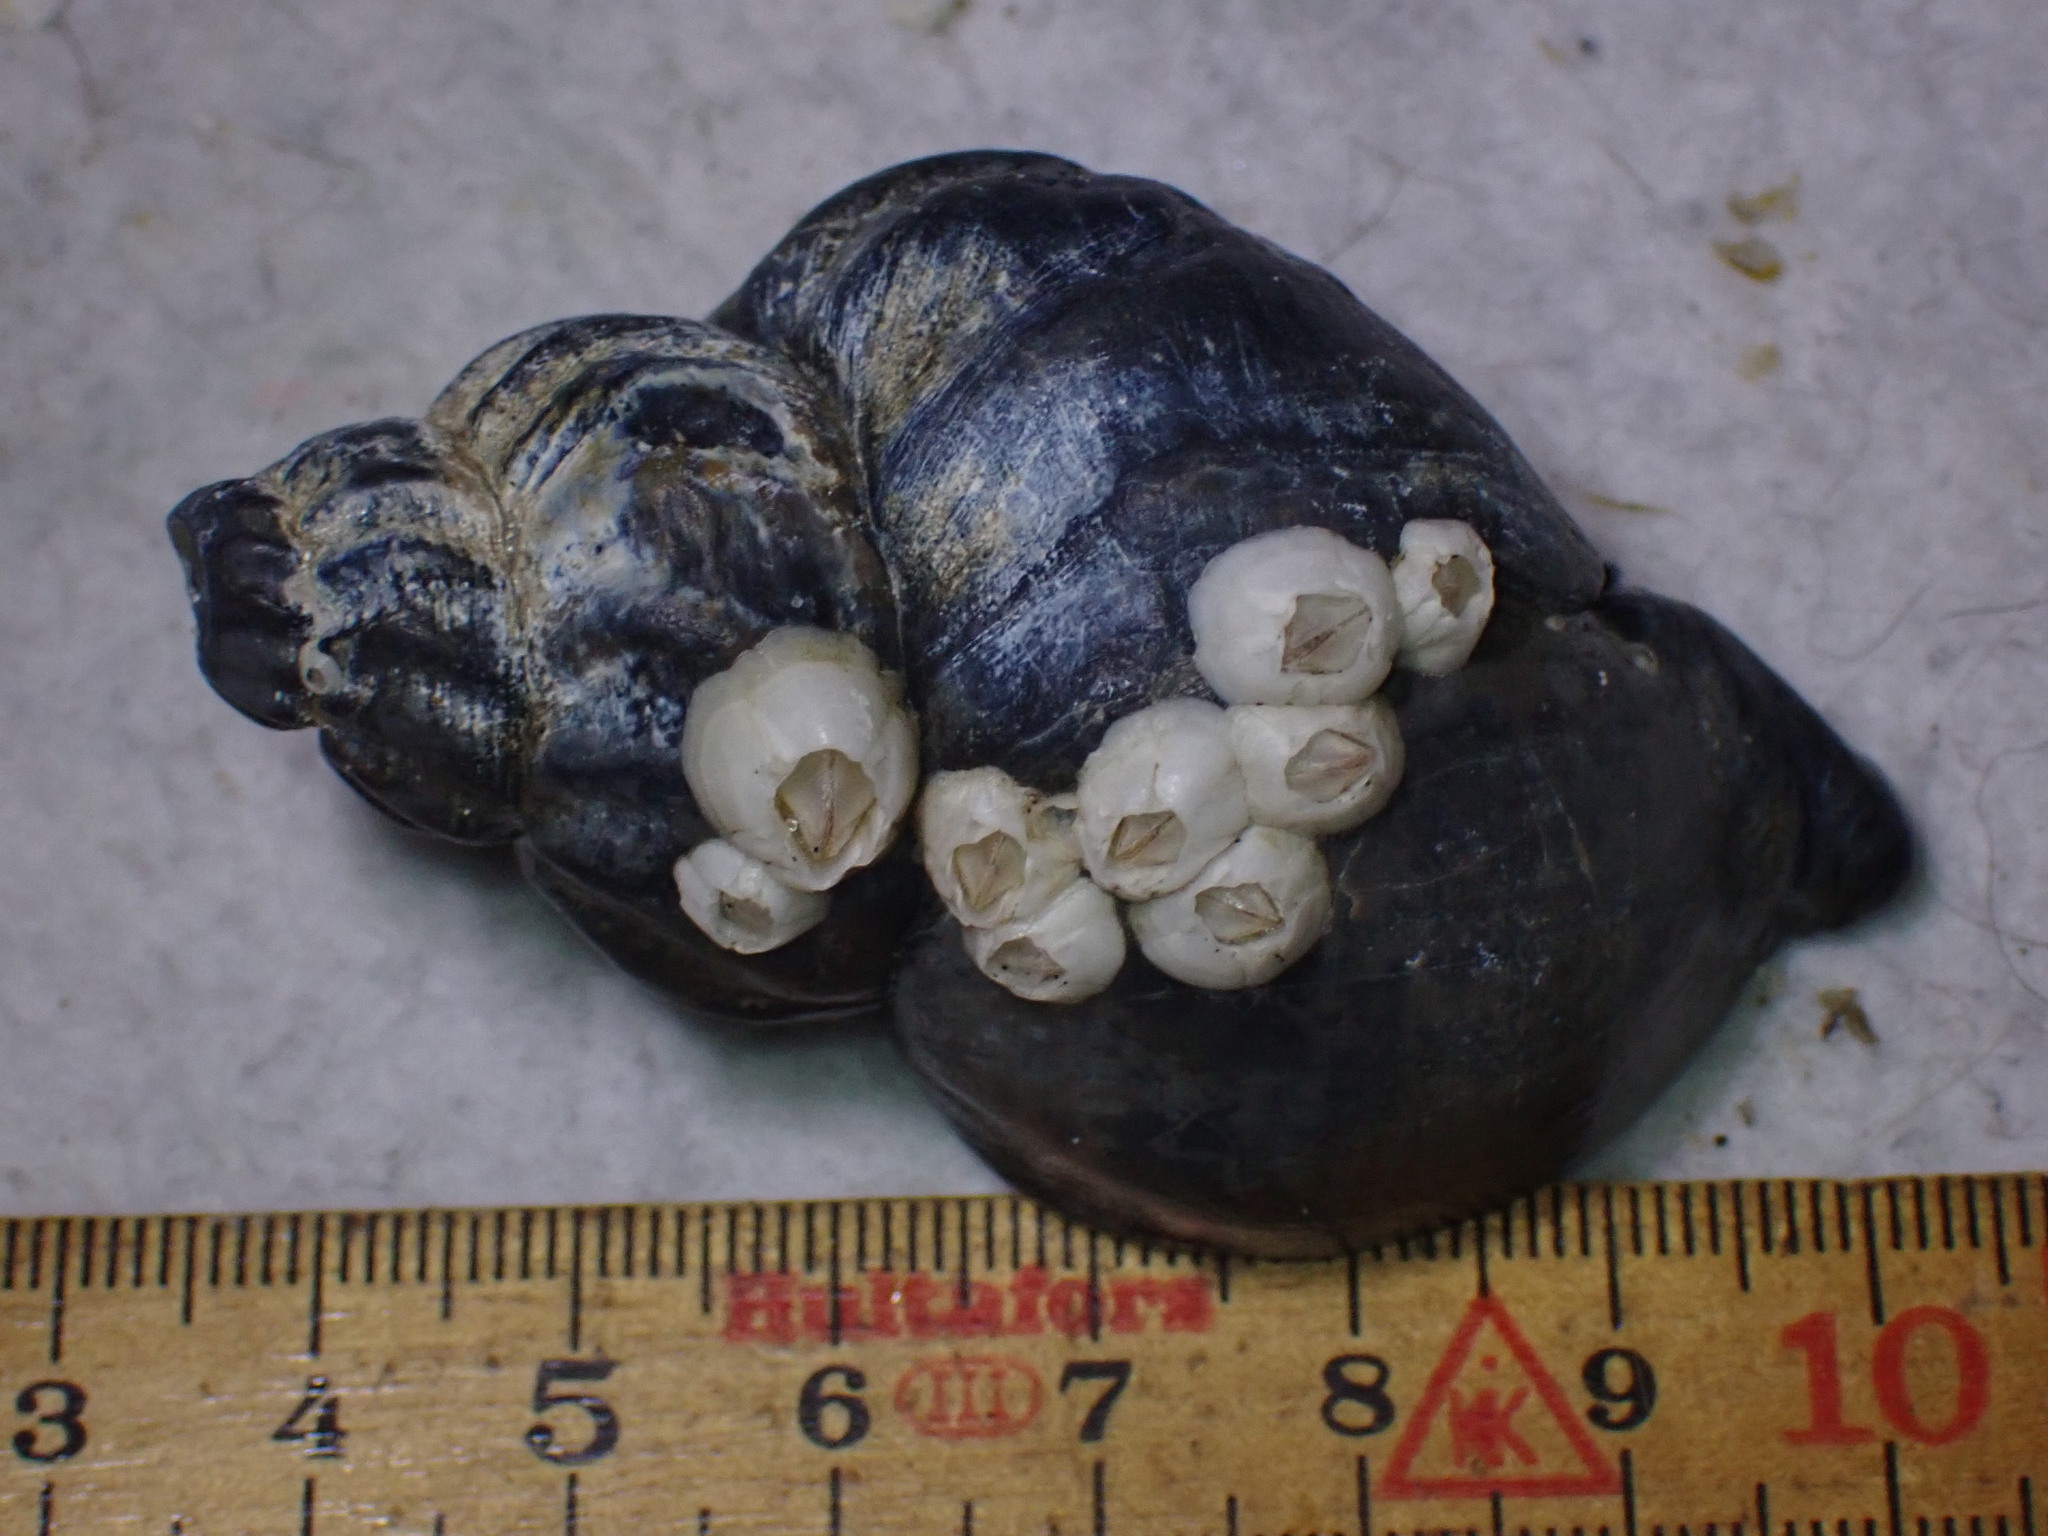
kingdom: Animalia
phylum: Mollusca
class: Gastropoda
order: Neogastropoda
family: Buccinidae
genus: Buccinum
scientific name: Buccinum undatum
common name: Common whelk
